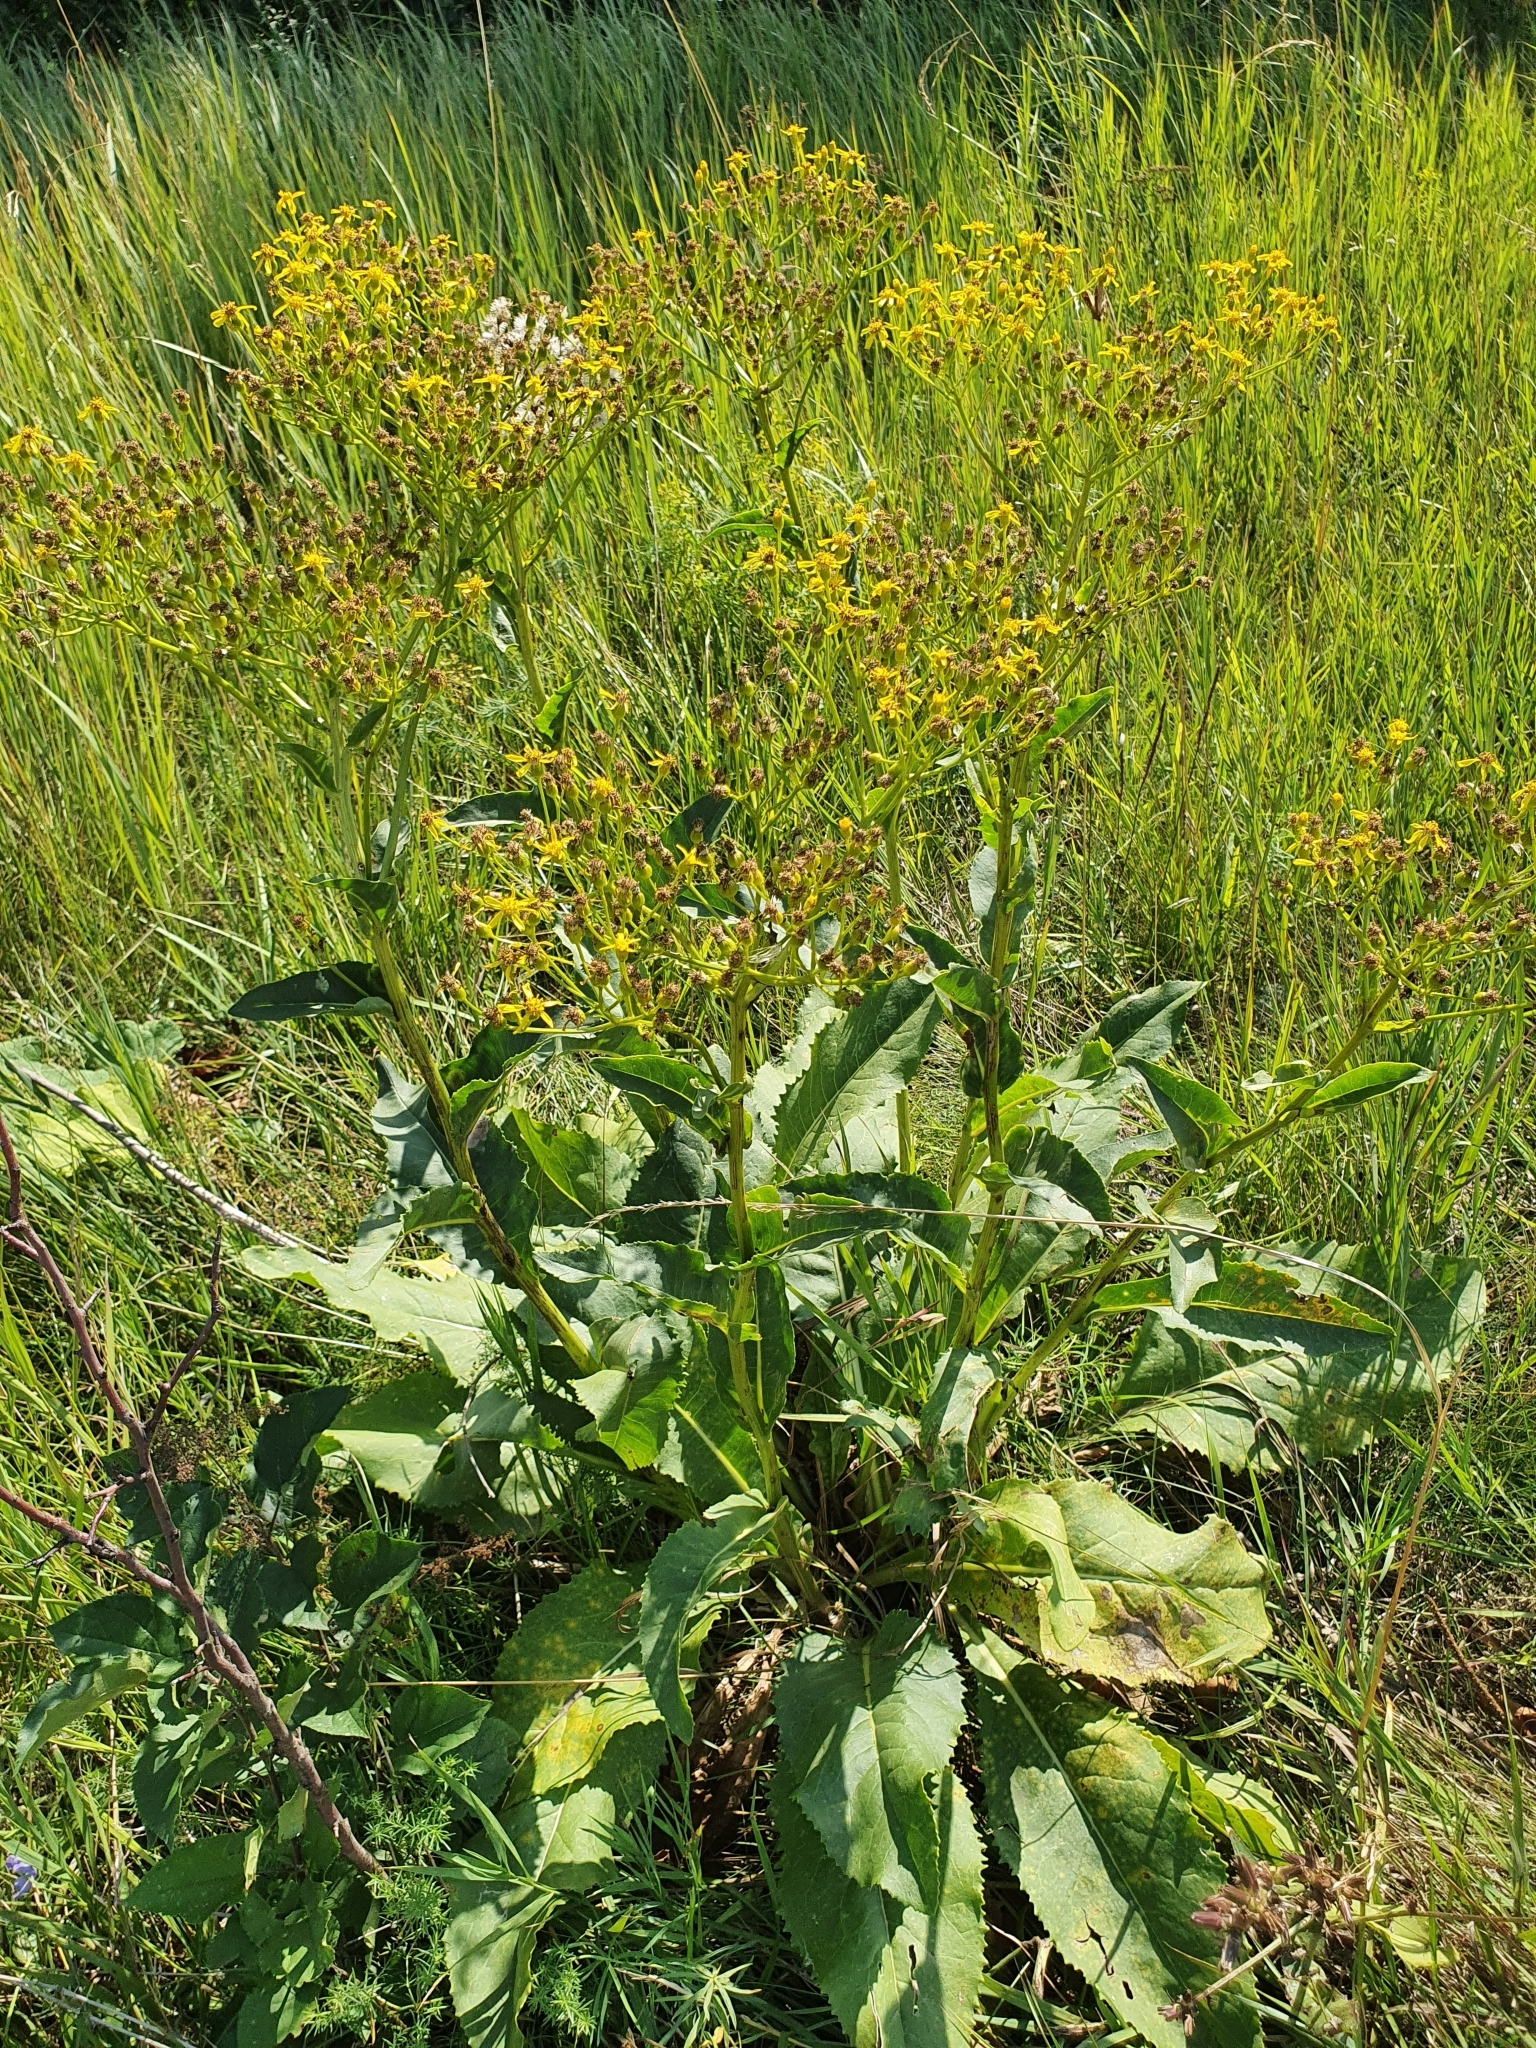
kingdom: Plantae
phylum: Tracheophyta
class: Magnoliopsida
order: Asterales
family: Asteraceae
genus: Senecio
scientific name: Senecio doria
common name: Golden ragwort
